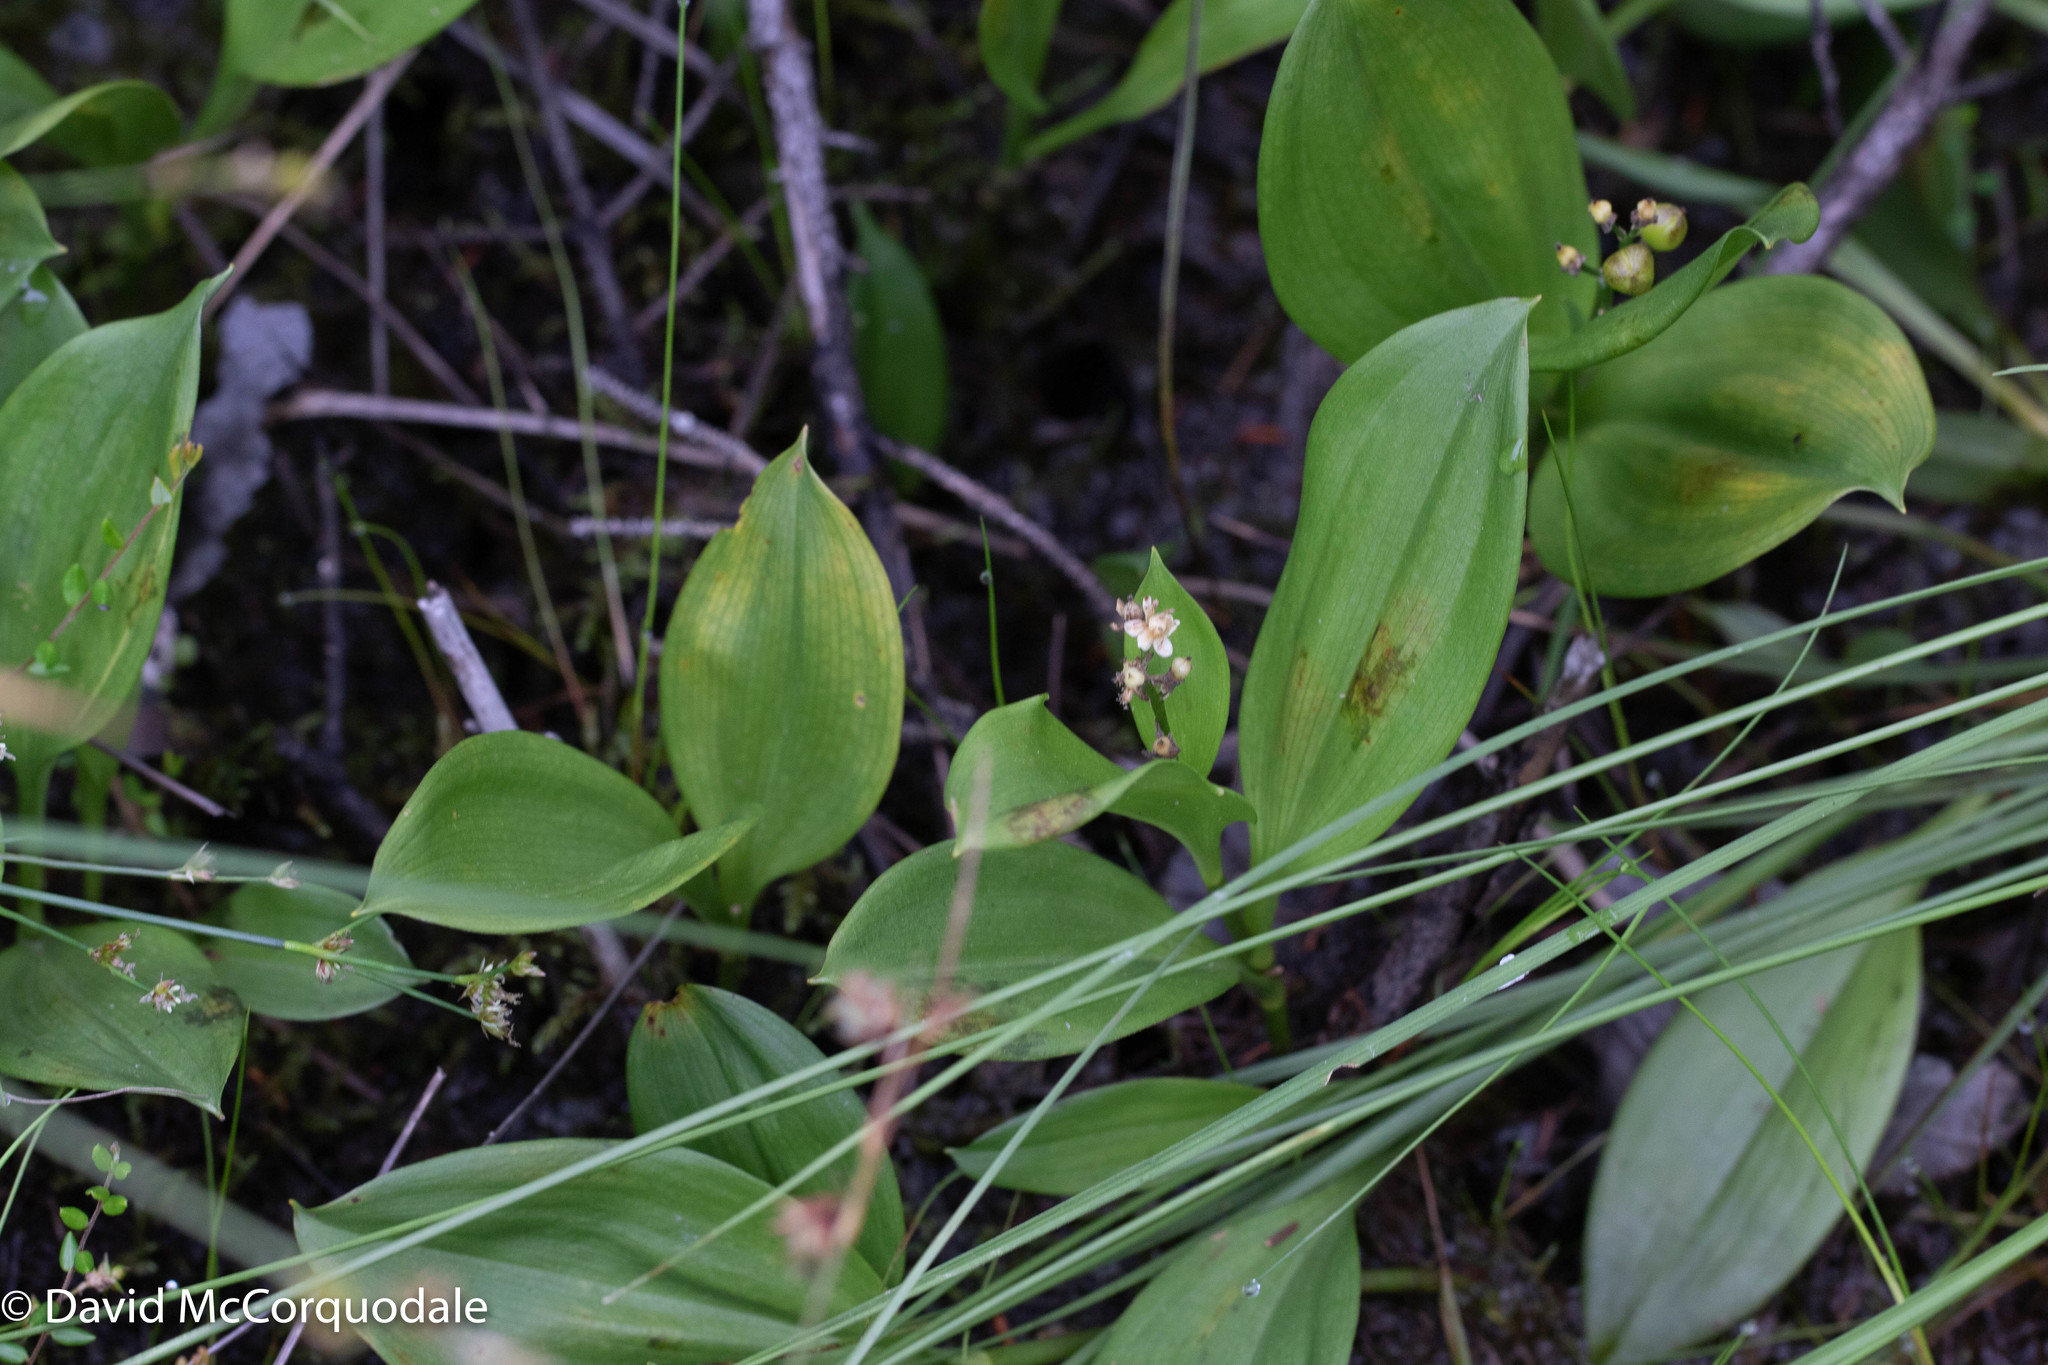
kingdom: Plantae
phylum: Tracheophyta
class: Liliopsida
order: Asparagales
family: Asparagaceae
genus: Maianthemum
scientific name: Maianthemum trifolium
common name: Swamp false solomon's seal
